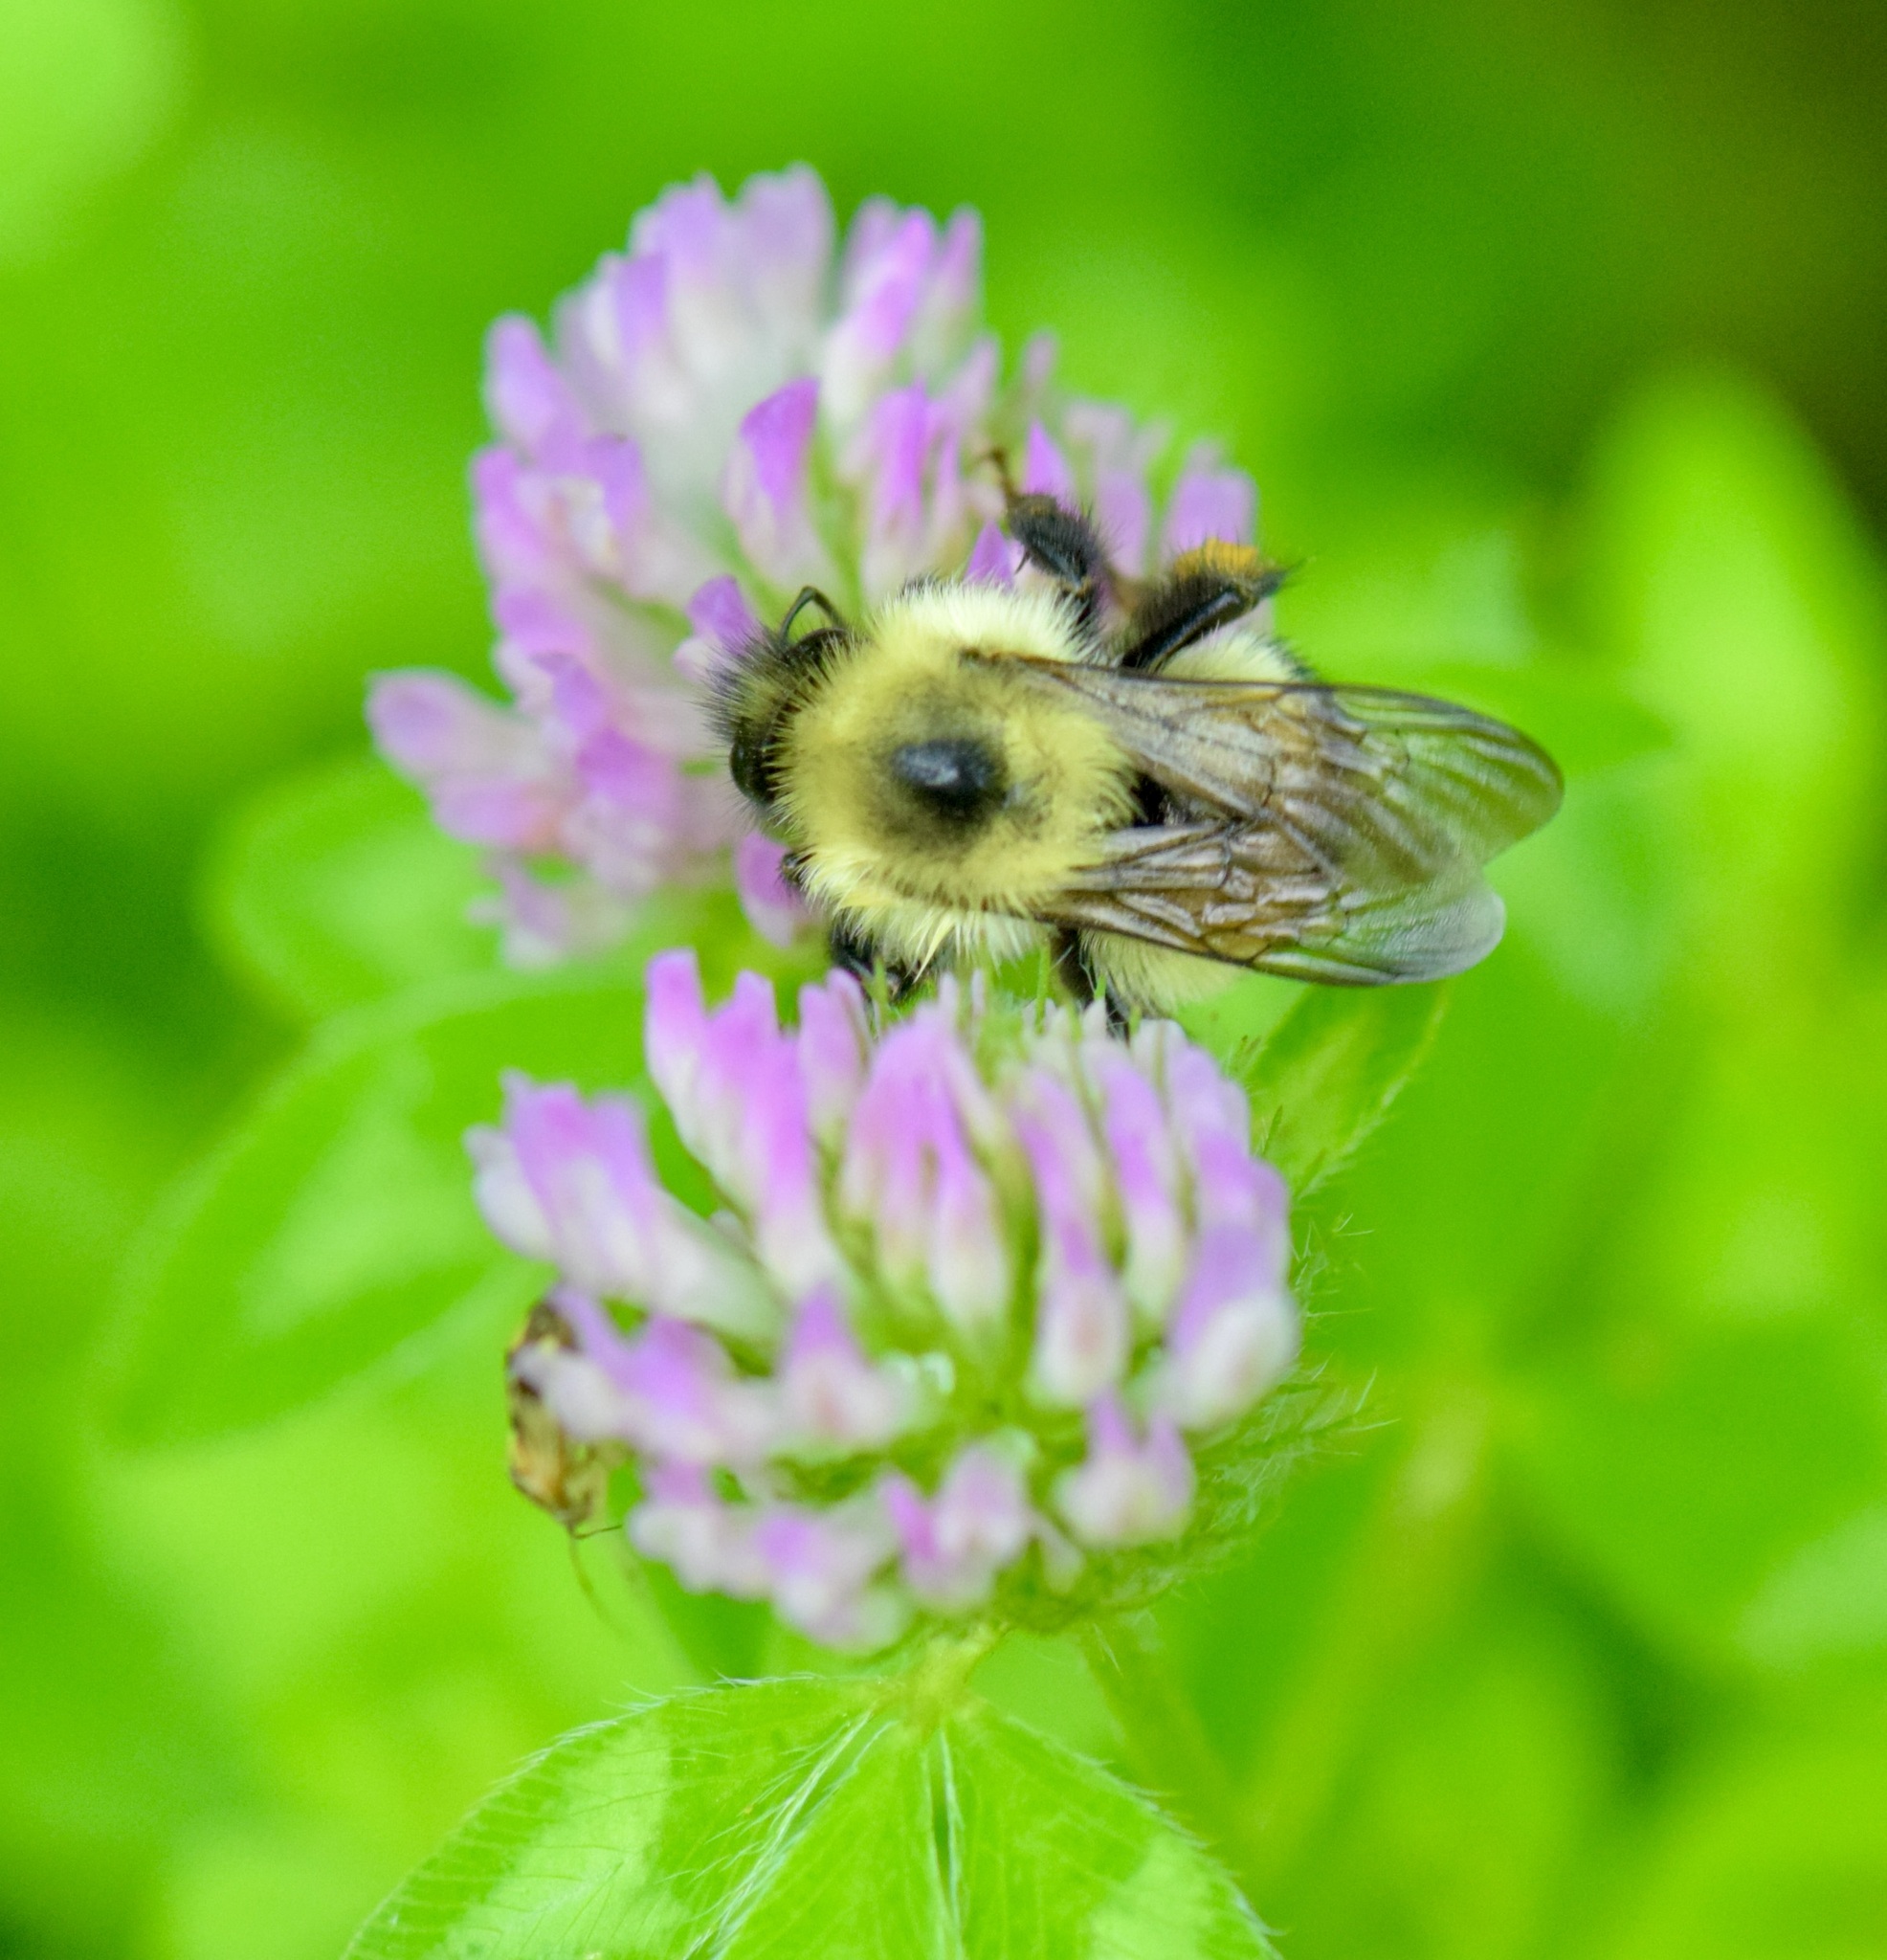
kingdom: Animalia
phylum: Arthropoda
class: Insecta
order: Hymenoptera
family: Apidae
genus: Bombus
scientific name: Bombus bimaculatus
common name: Two-spotted bumble bee
